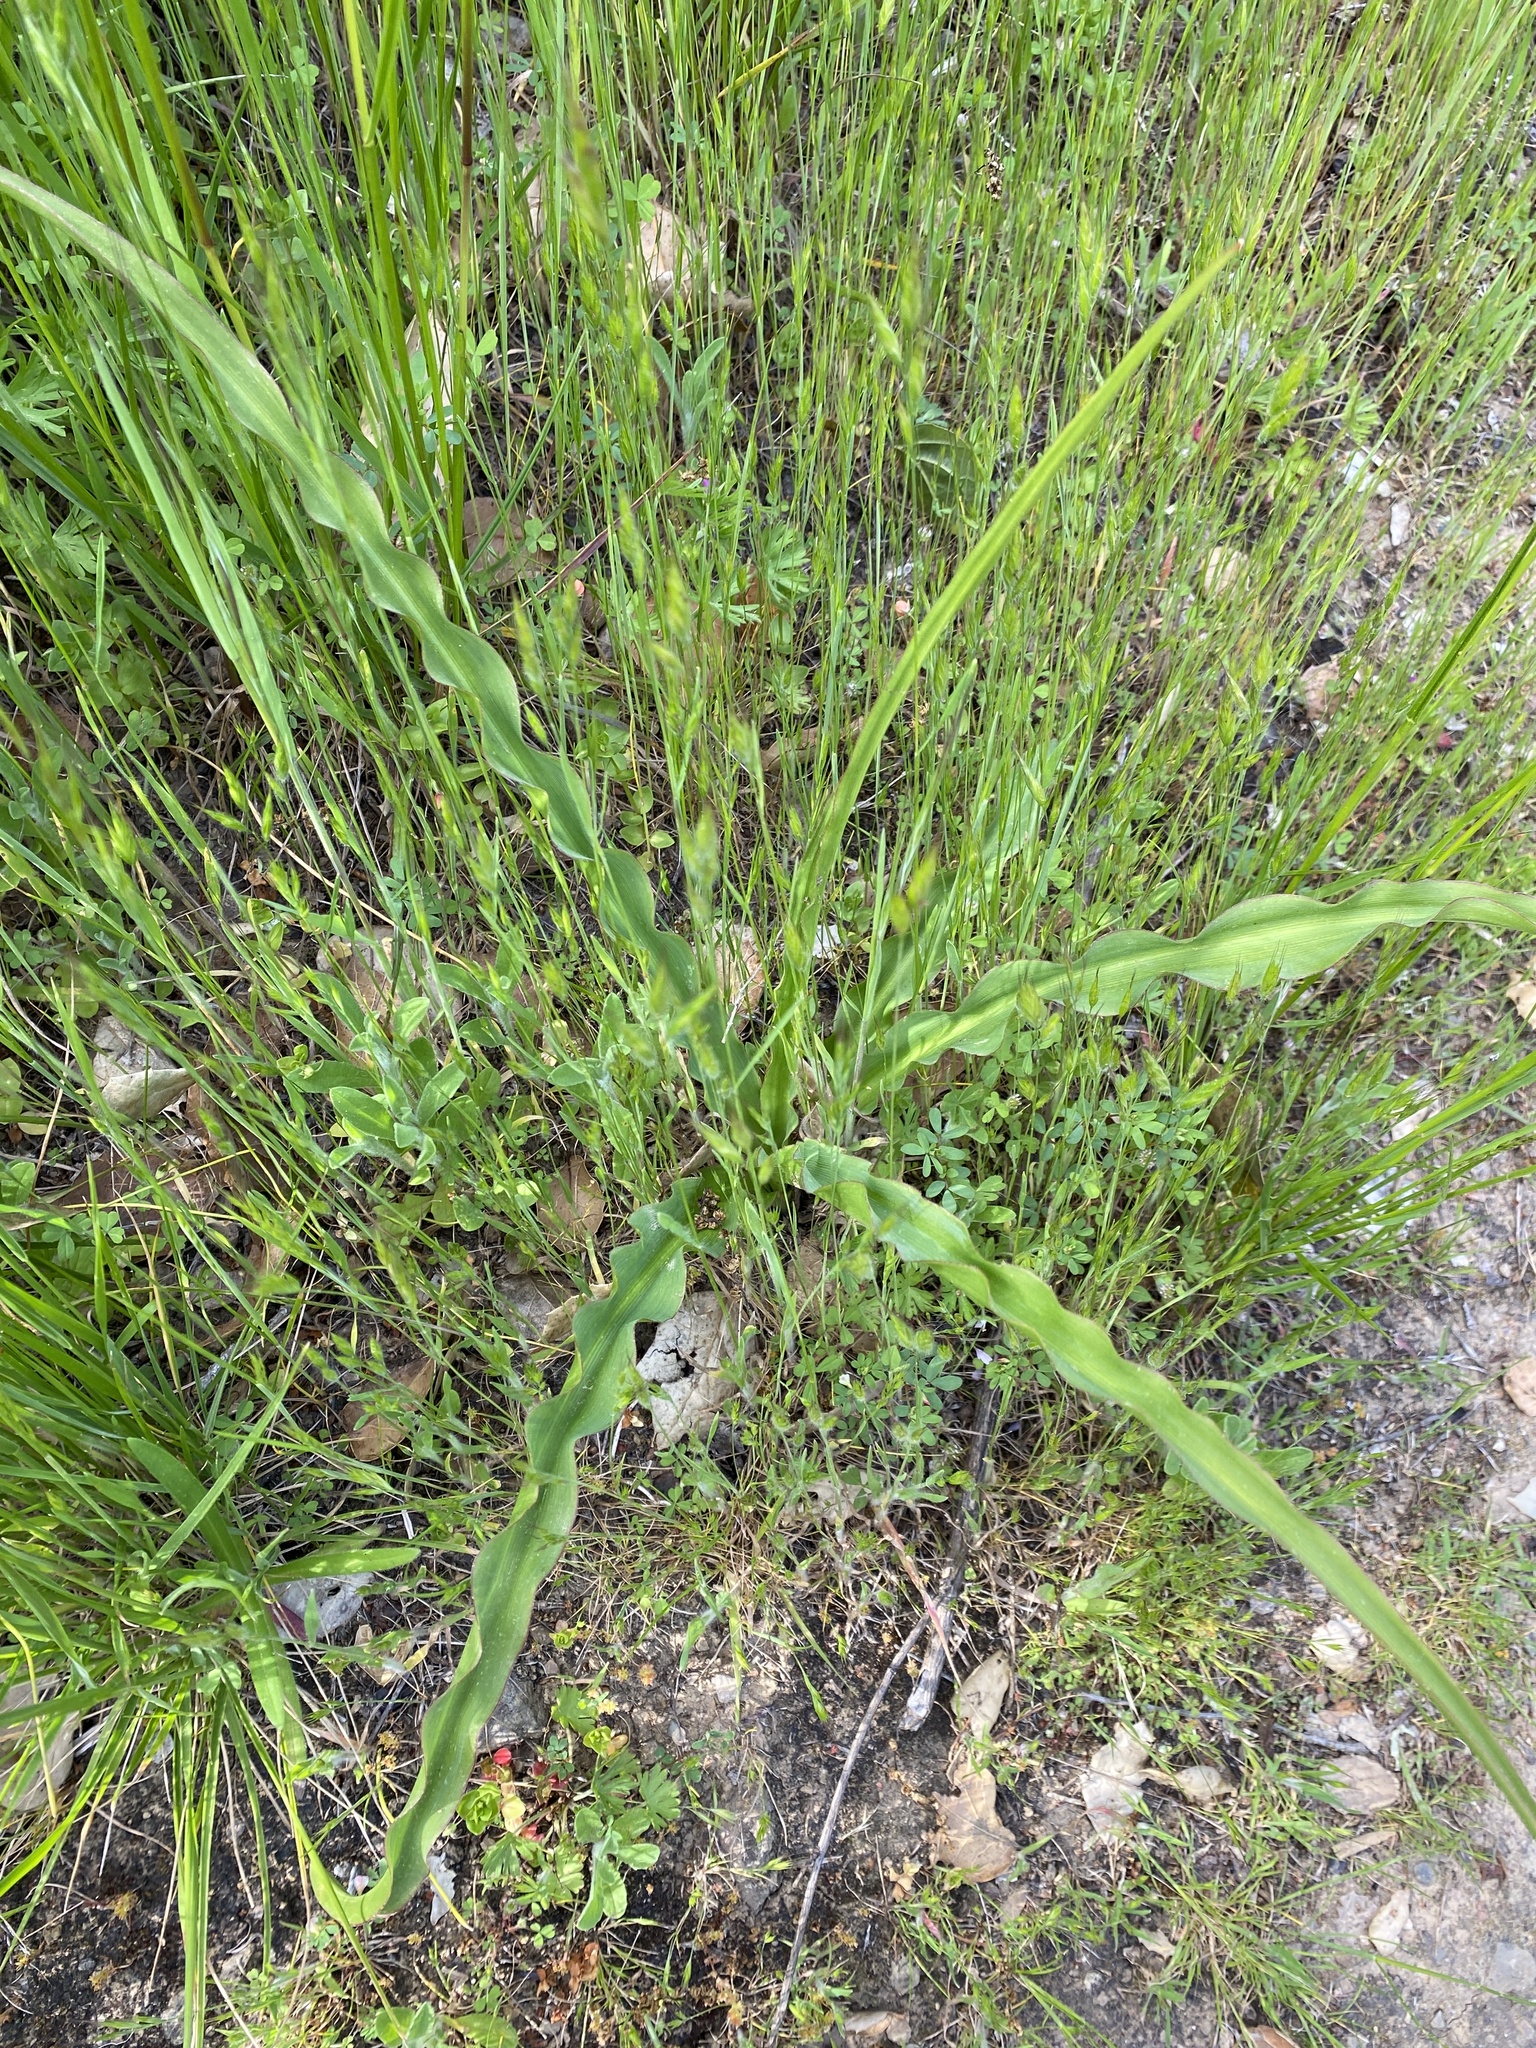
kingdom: Plantae
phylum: Tracheophyta
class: Liliopsida
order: Asparagales
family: Asparagaceae
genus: Chlorogalum
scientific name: Chlorogalum pomeridianum
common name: Amole
